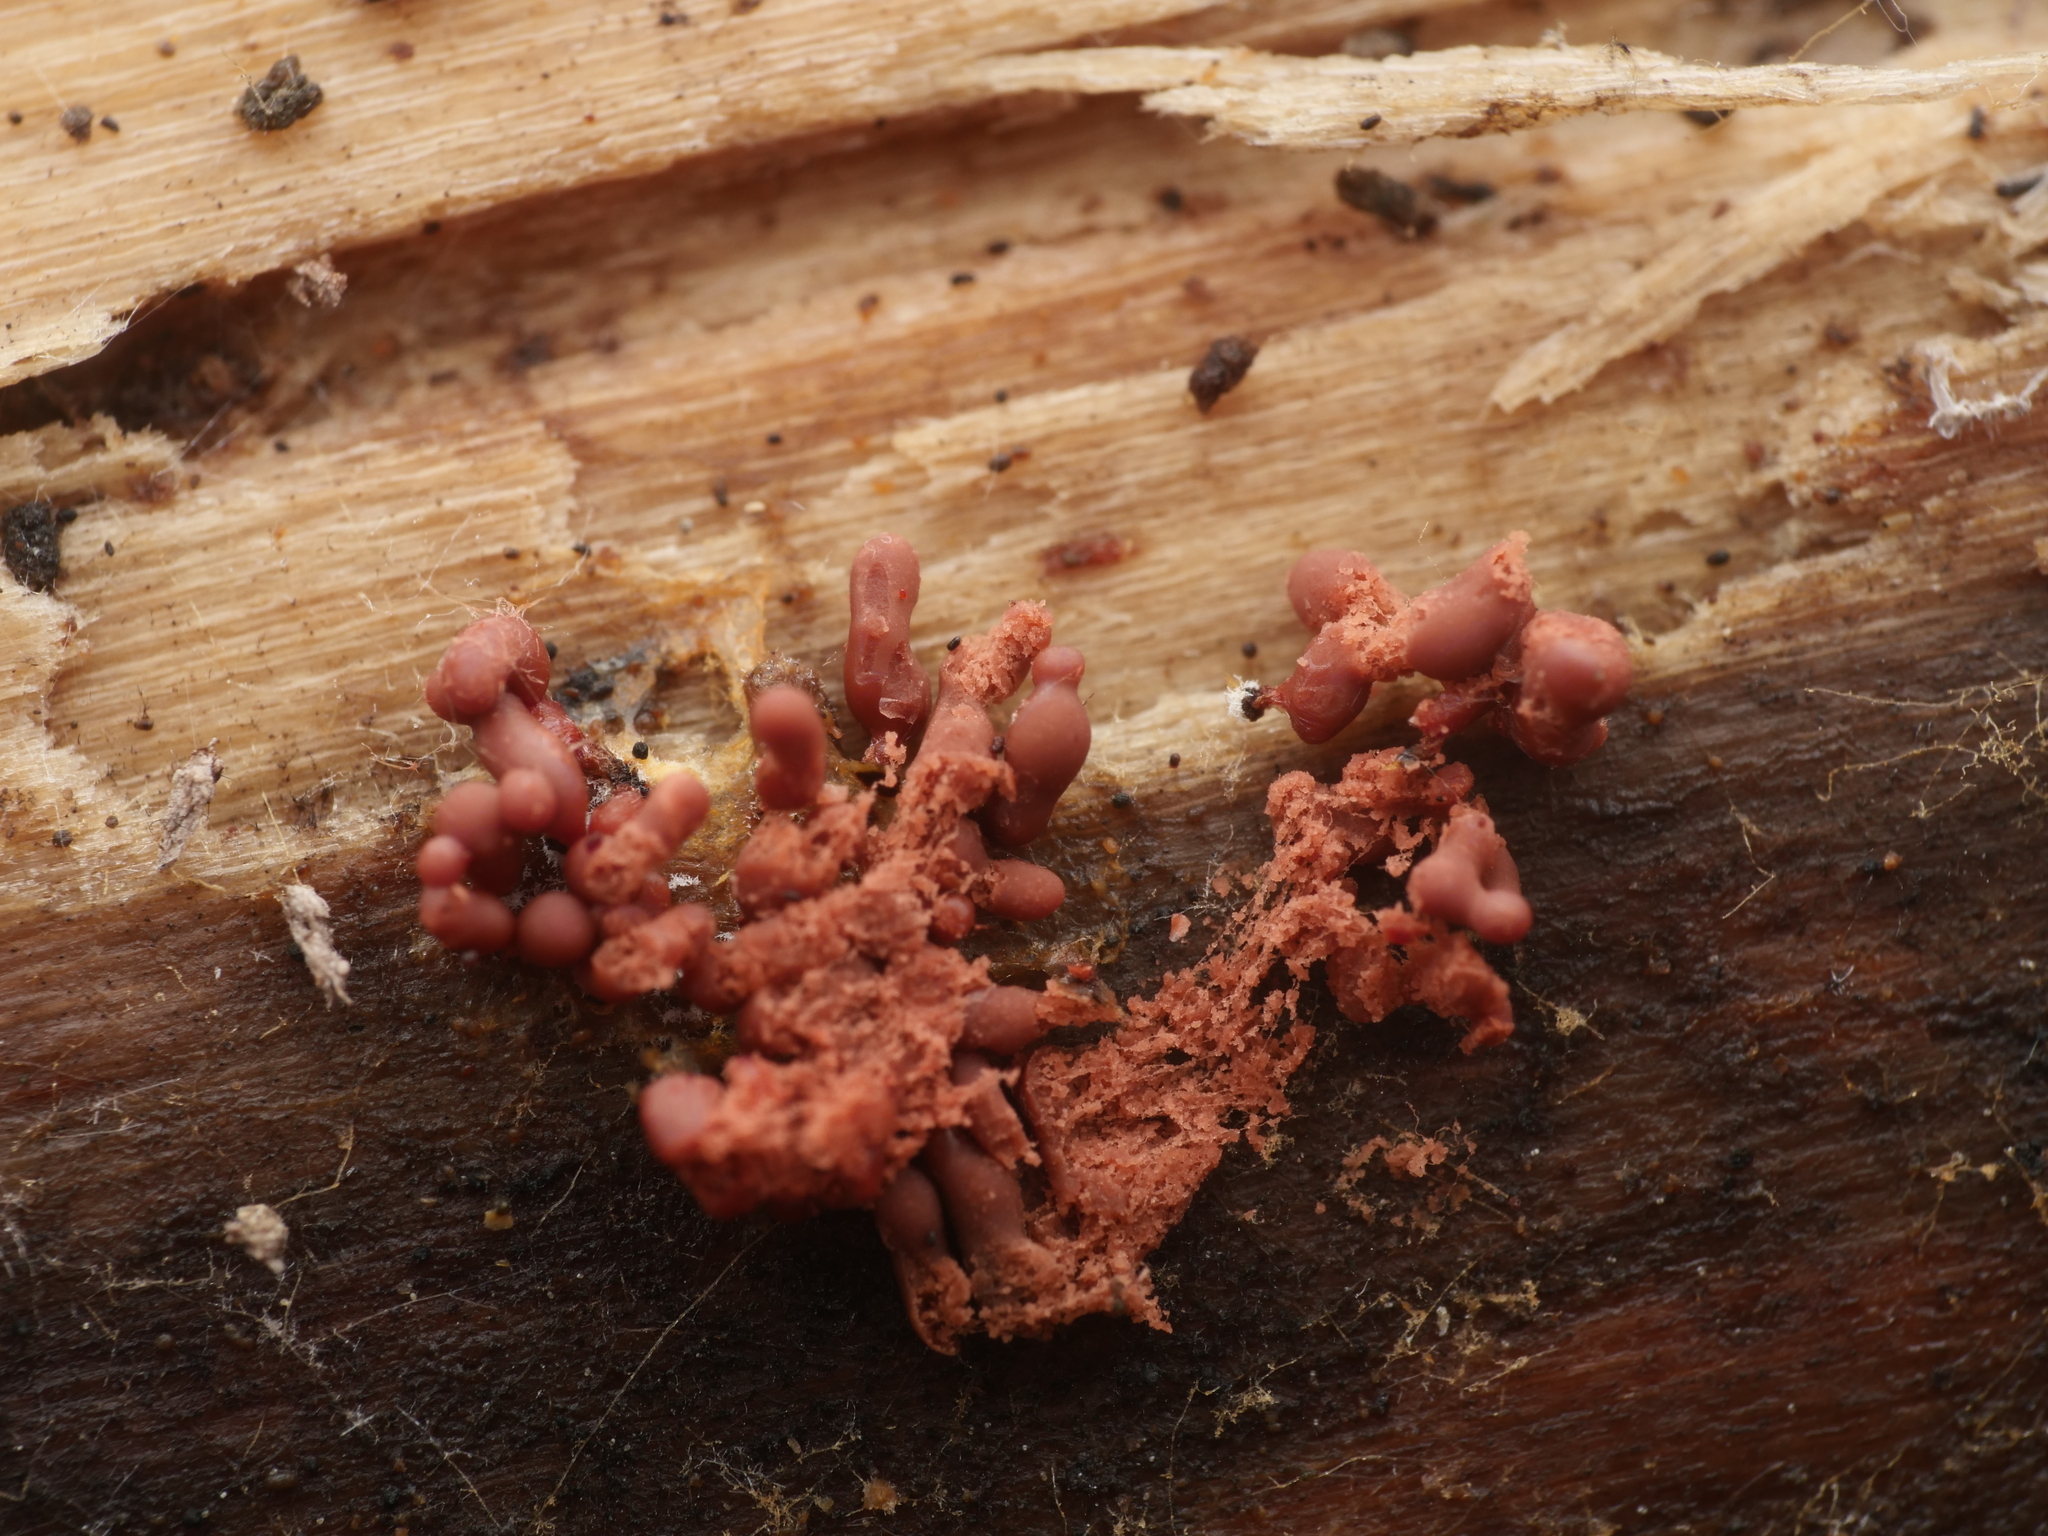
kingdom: Protozoa
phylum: Mycetozoa
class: Myxomycetes
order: Trichiales
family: Arcyriaceae
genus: Arcyria
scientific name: Arcyria denudata
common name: Carnival candy slime mold
